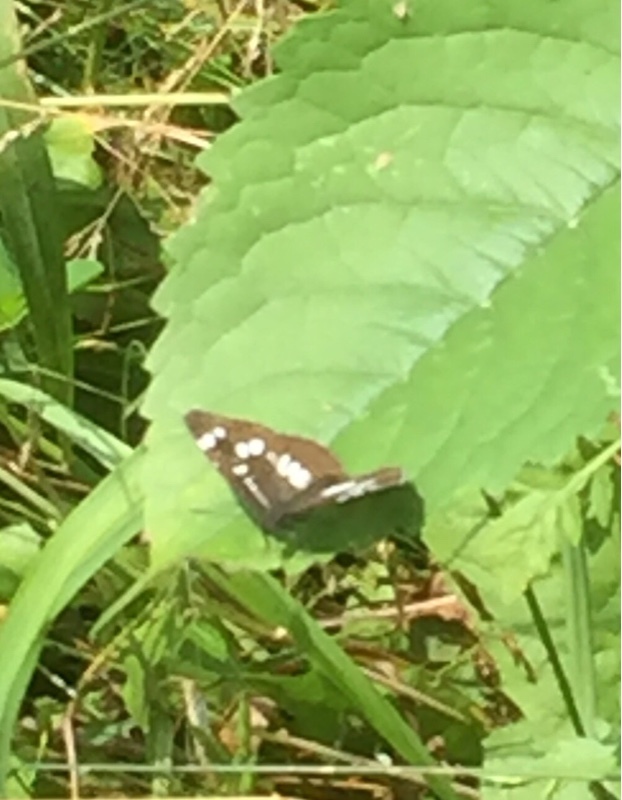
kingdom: Animalia
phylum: Arthropoda
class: Insecta
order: Lepidoptera
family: Nymphalidae
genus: Neptis
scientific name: Neptis rivularis
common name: Hungarian glider
